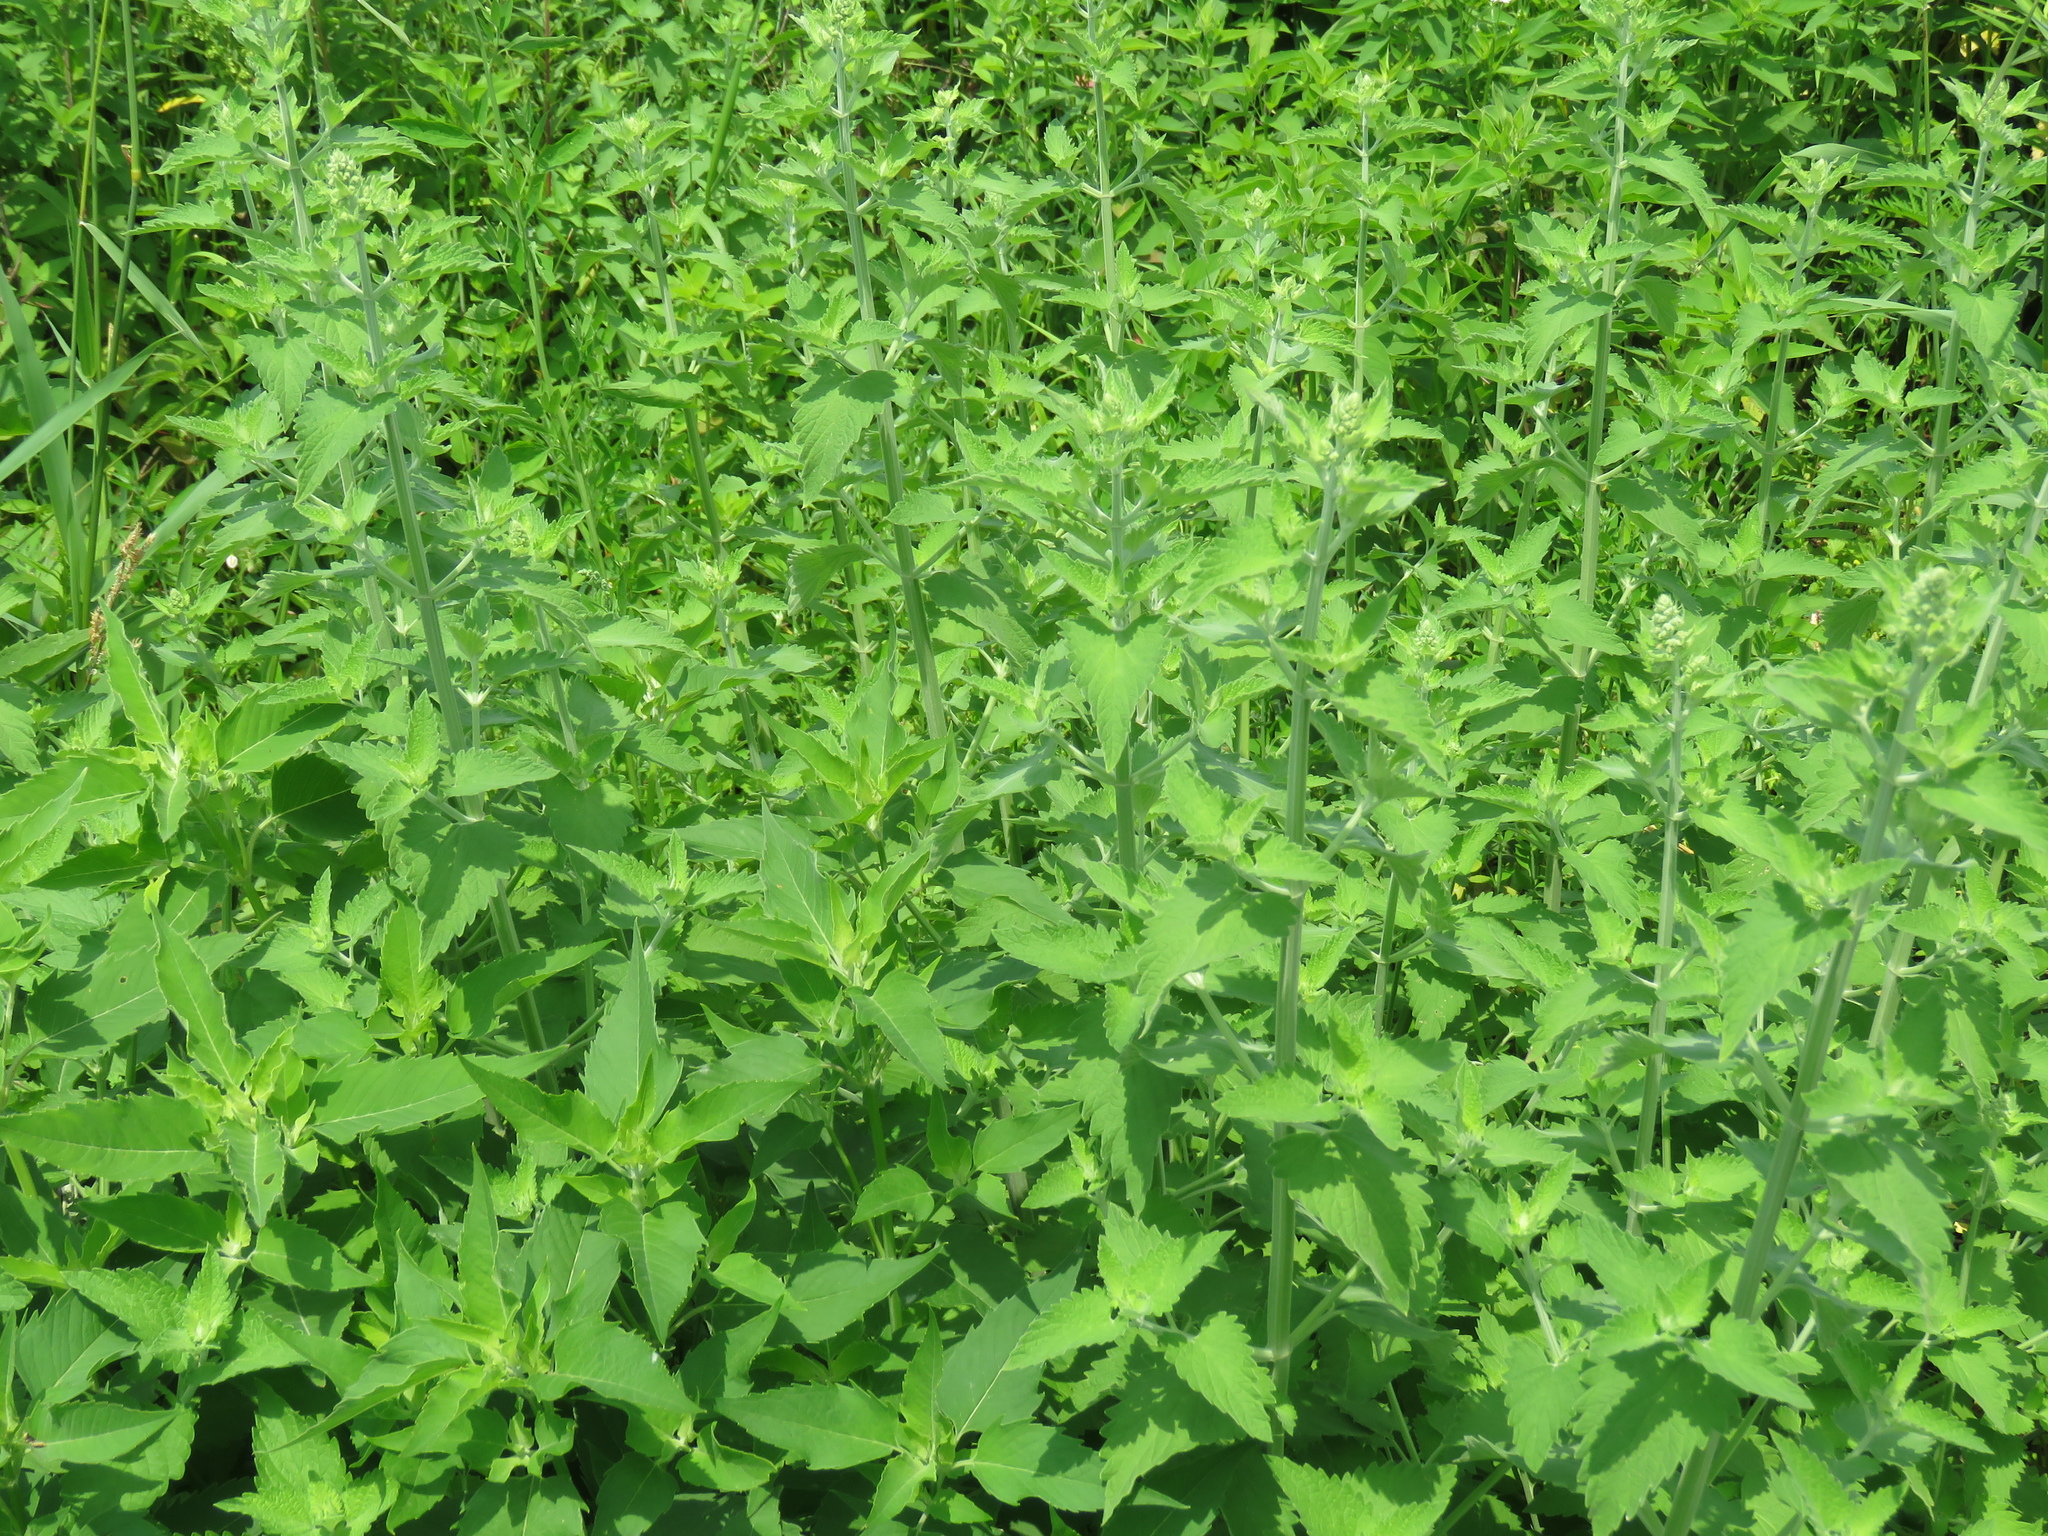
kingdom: Plantae
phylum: Tracheophyta
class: Magnoliopsida
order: Lamiales
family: Lamiaceae
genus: Nepeta
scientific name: Nepeta cataria
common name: Catnip
